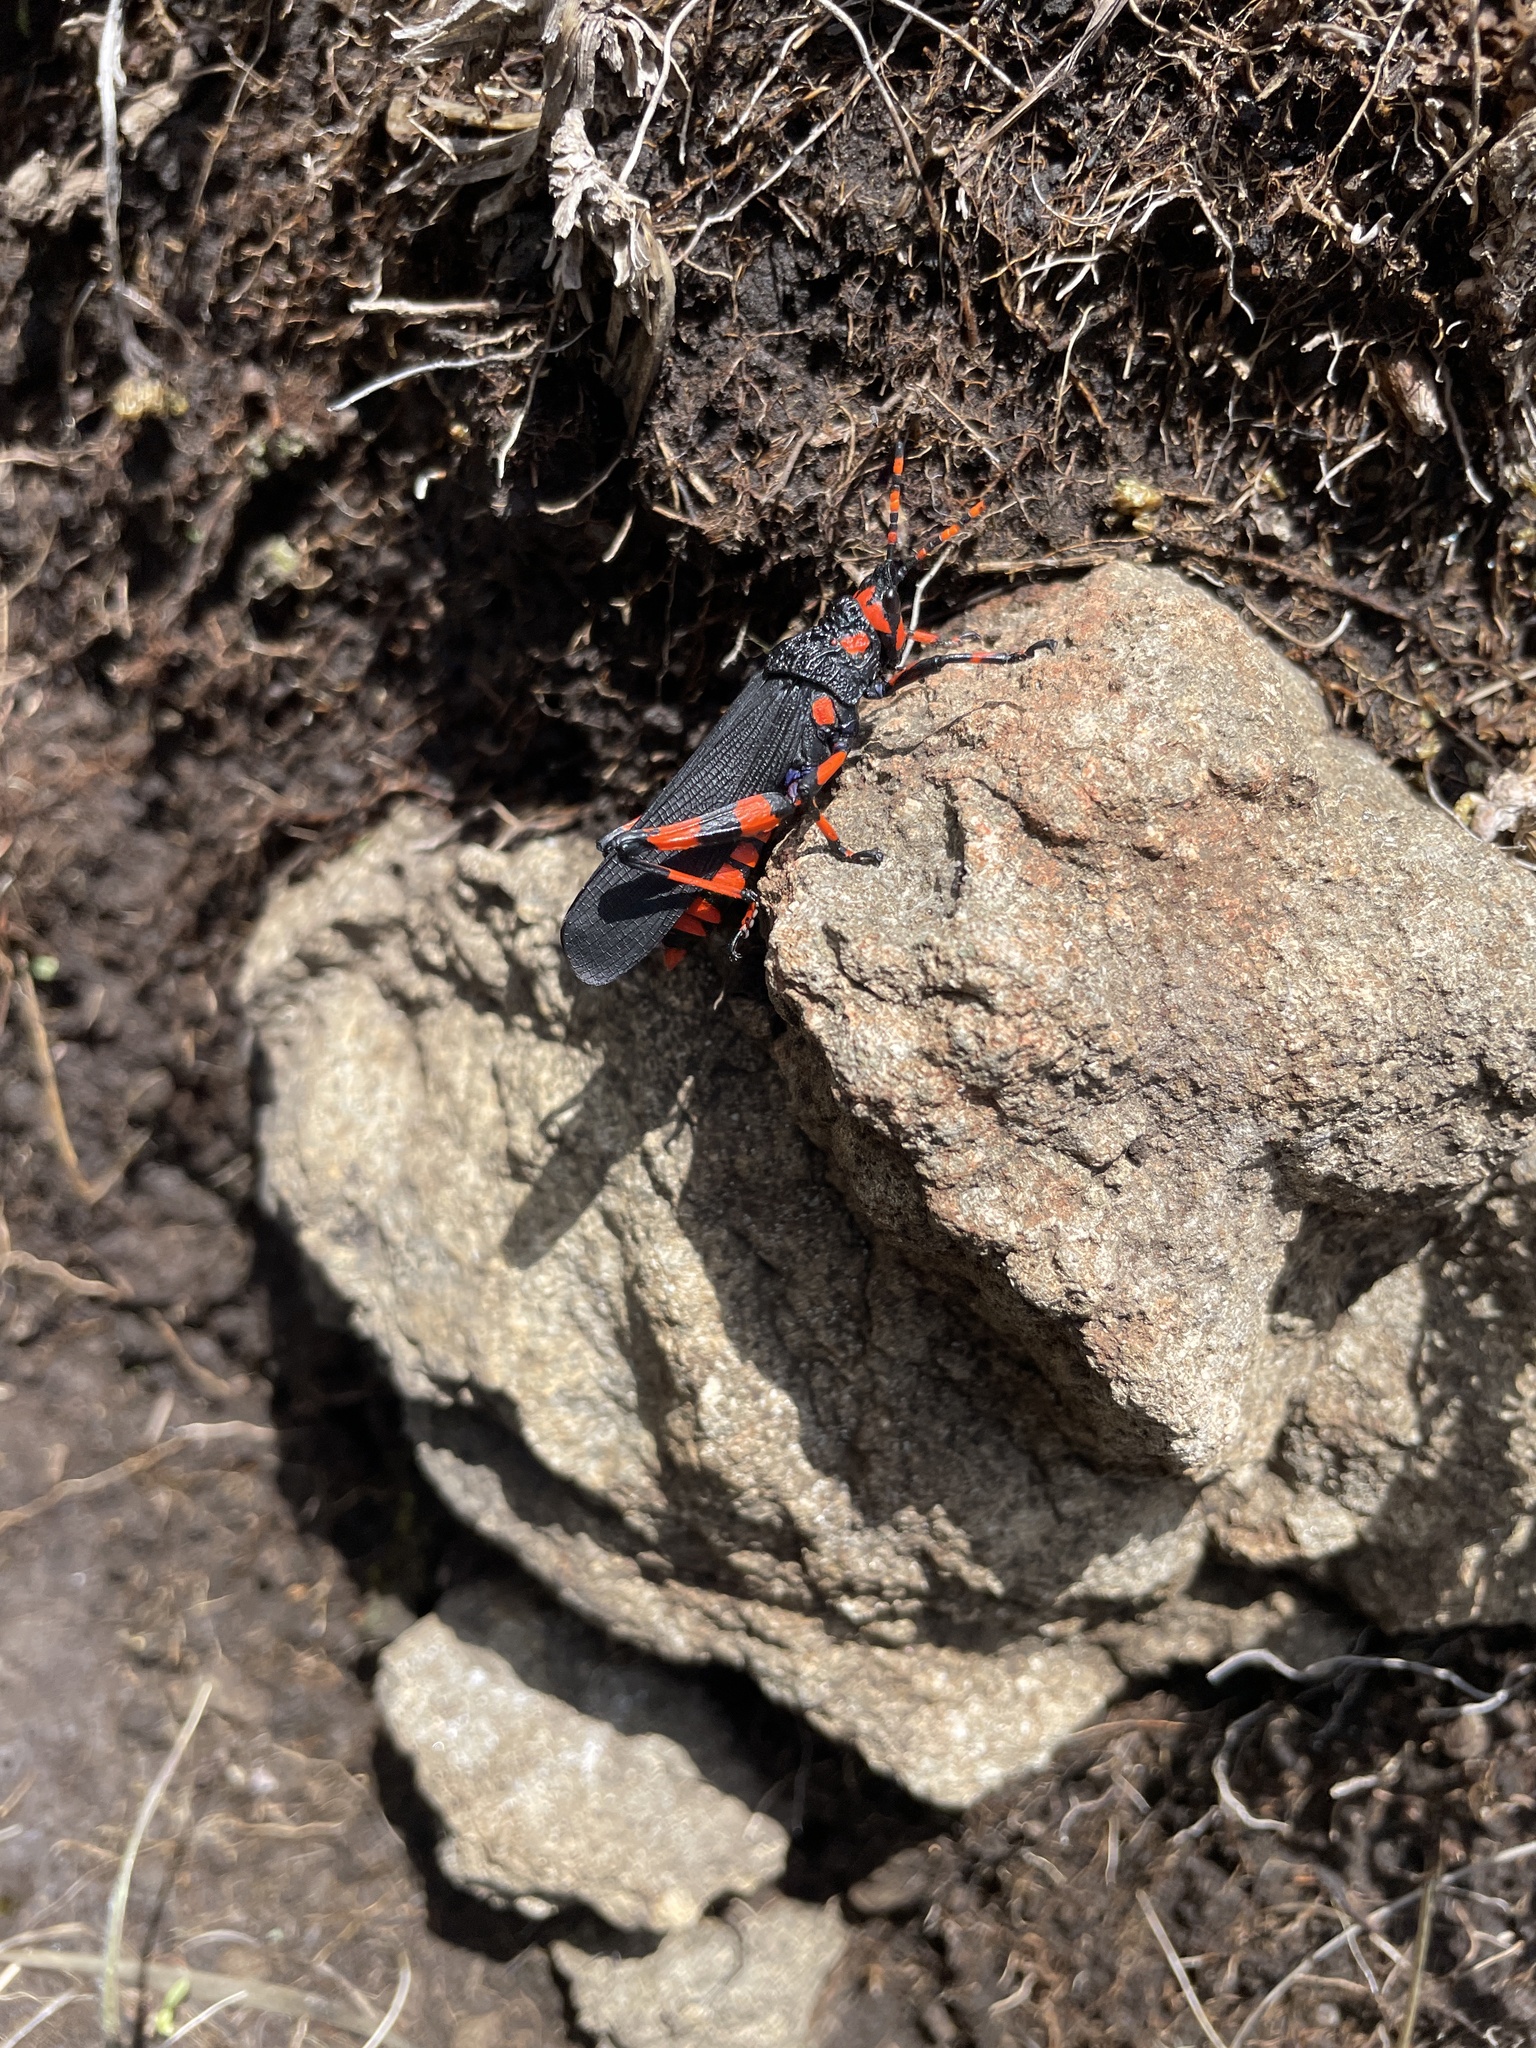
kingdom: Animalia
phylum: Arthropoda
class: Insecta
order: Orthoptera
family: Pyrgomorphidae
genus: Maura
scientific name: Maura rubroornata
